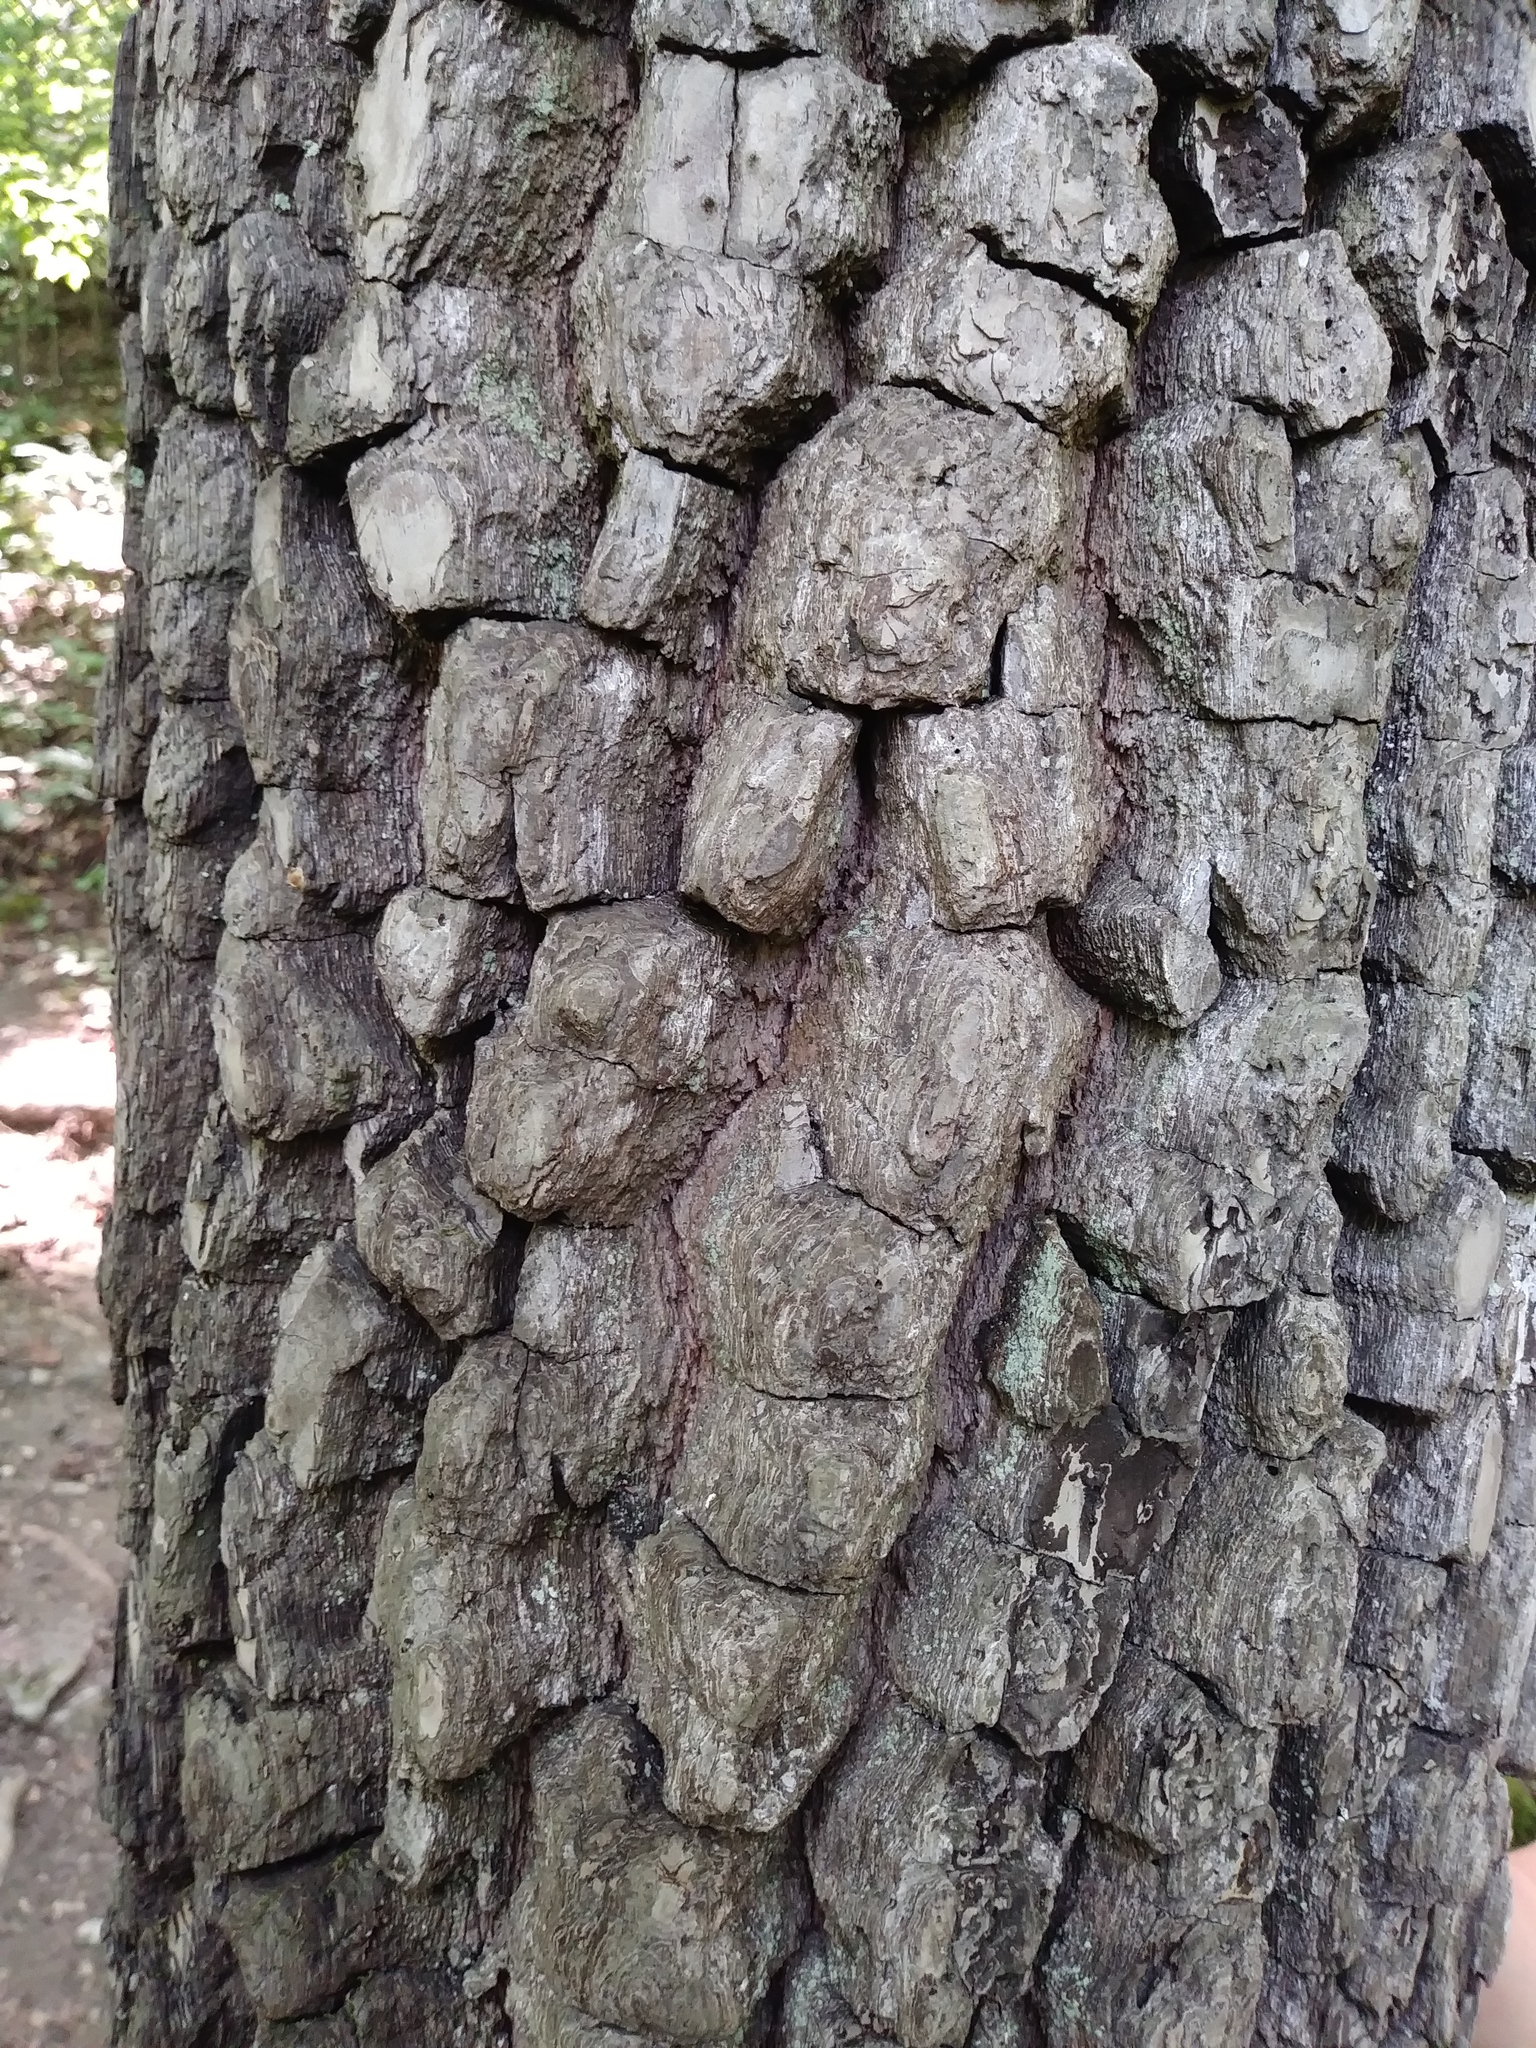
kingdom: Plantae
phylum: Tracheophyta
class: Magnoliopsida
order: Ericales
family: Ebenaceae
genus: Diospyros
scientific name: Diospyros virginiana
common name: Persimmon
